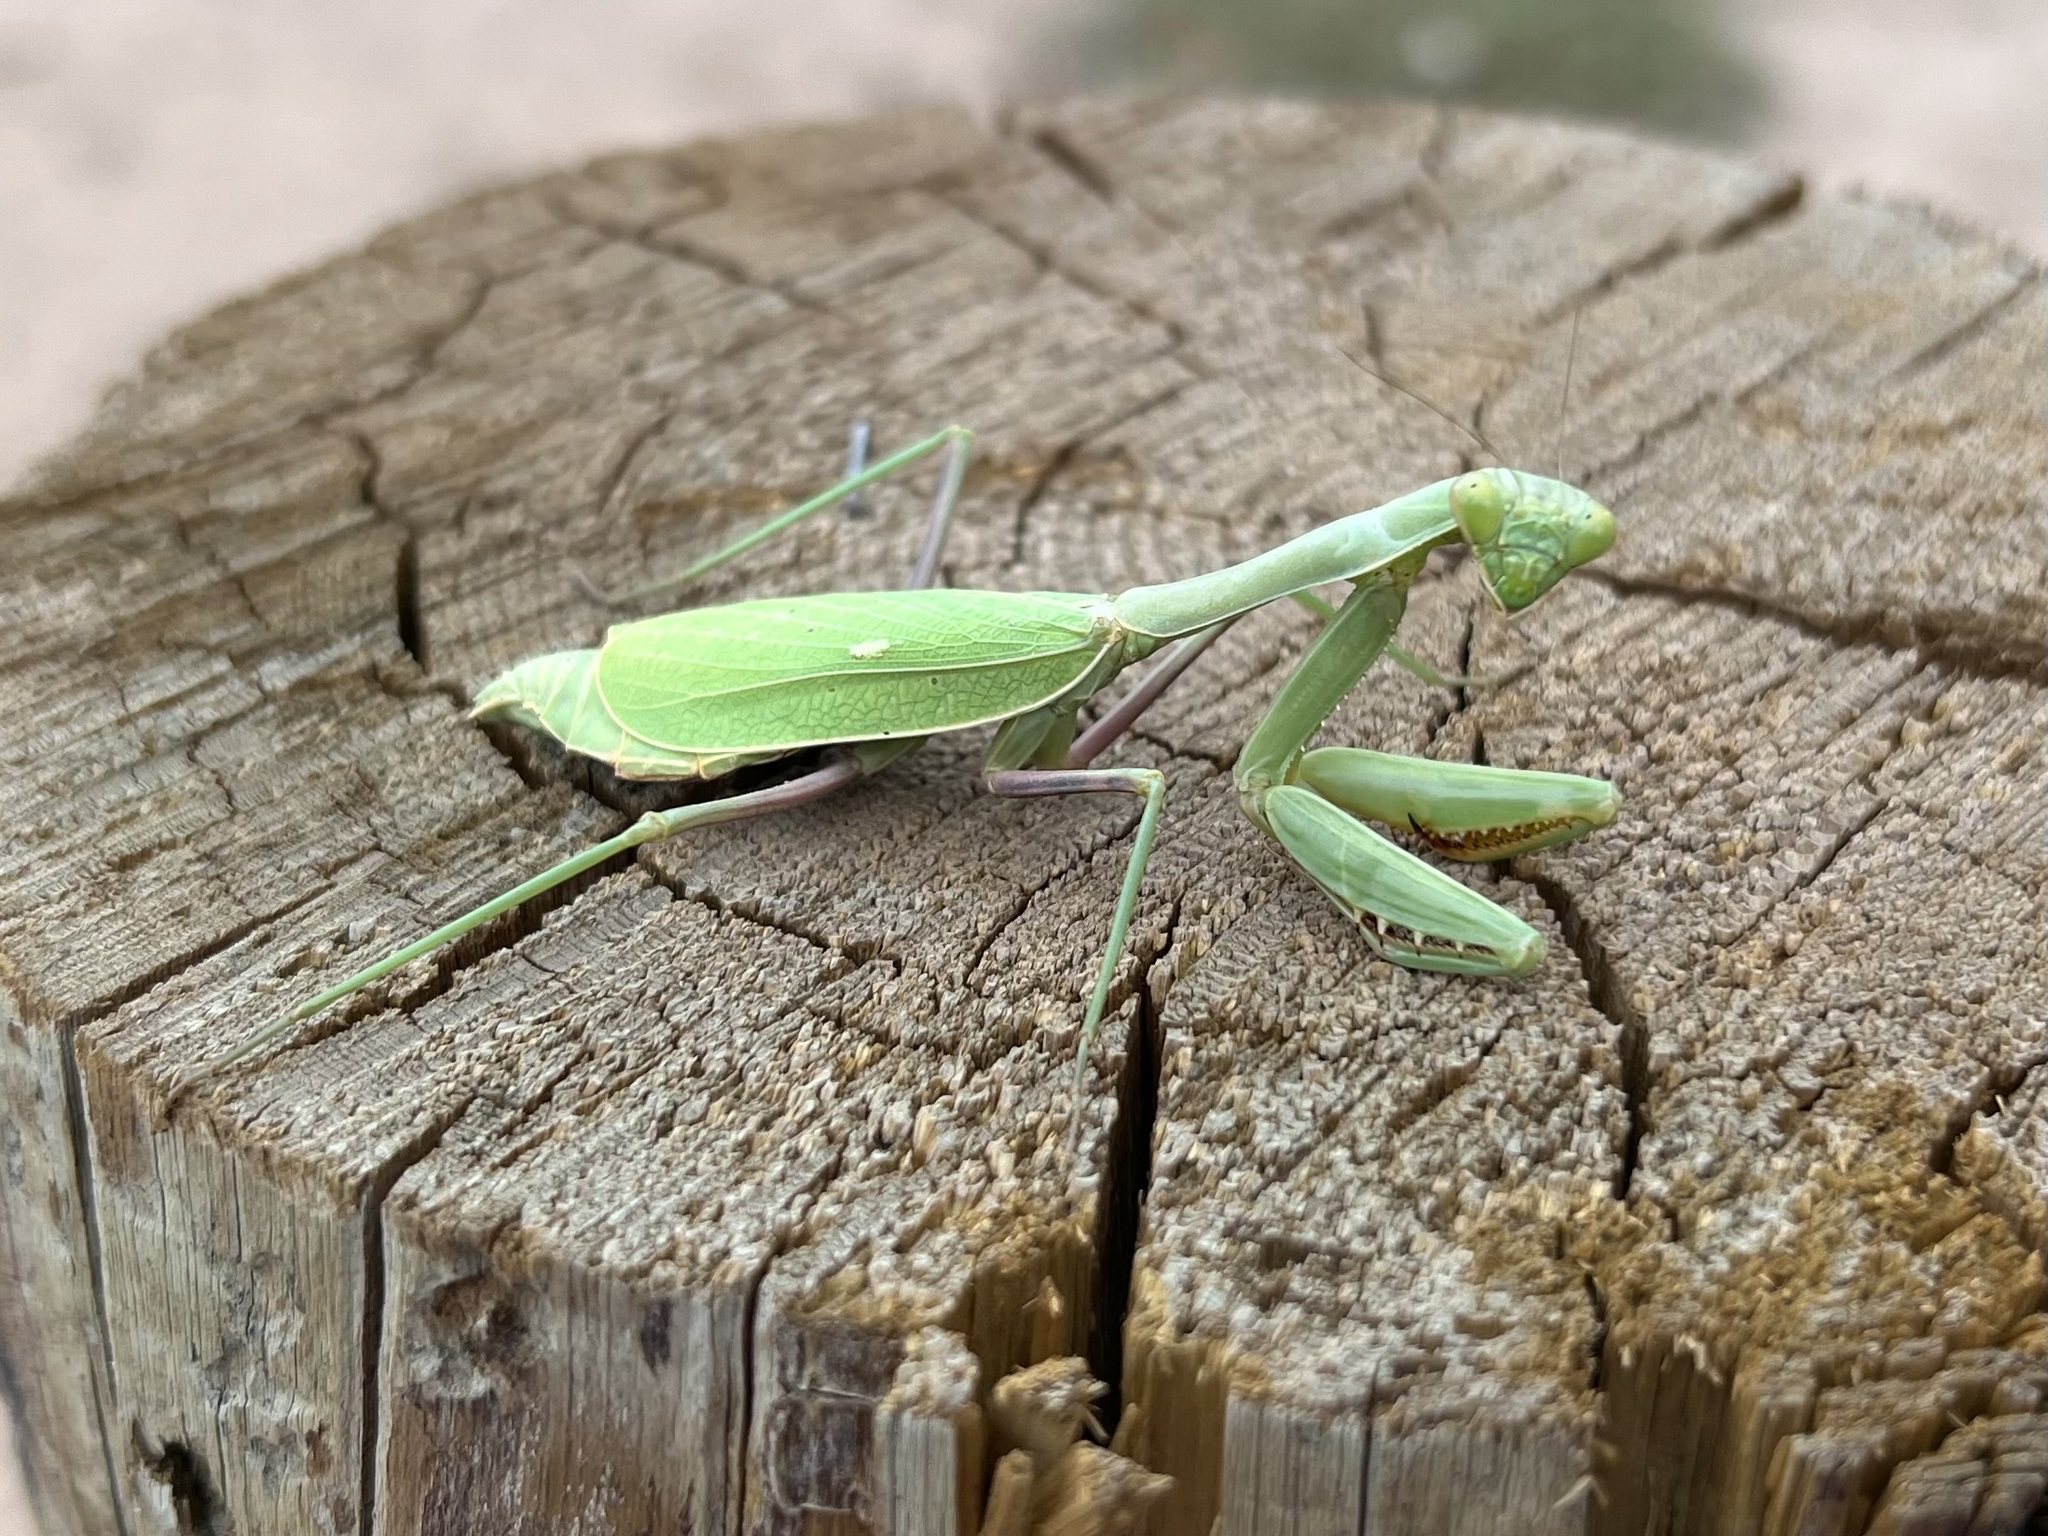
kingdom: Animalia
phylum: Arthropoda
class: Insecta
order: Mantodea
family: Mantidae
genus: Stagmomantis
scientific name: Stagmomantis limbata
